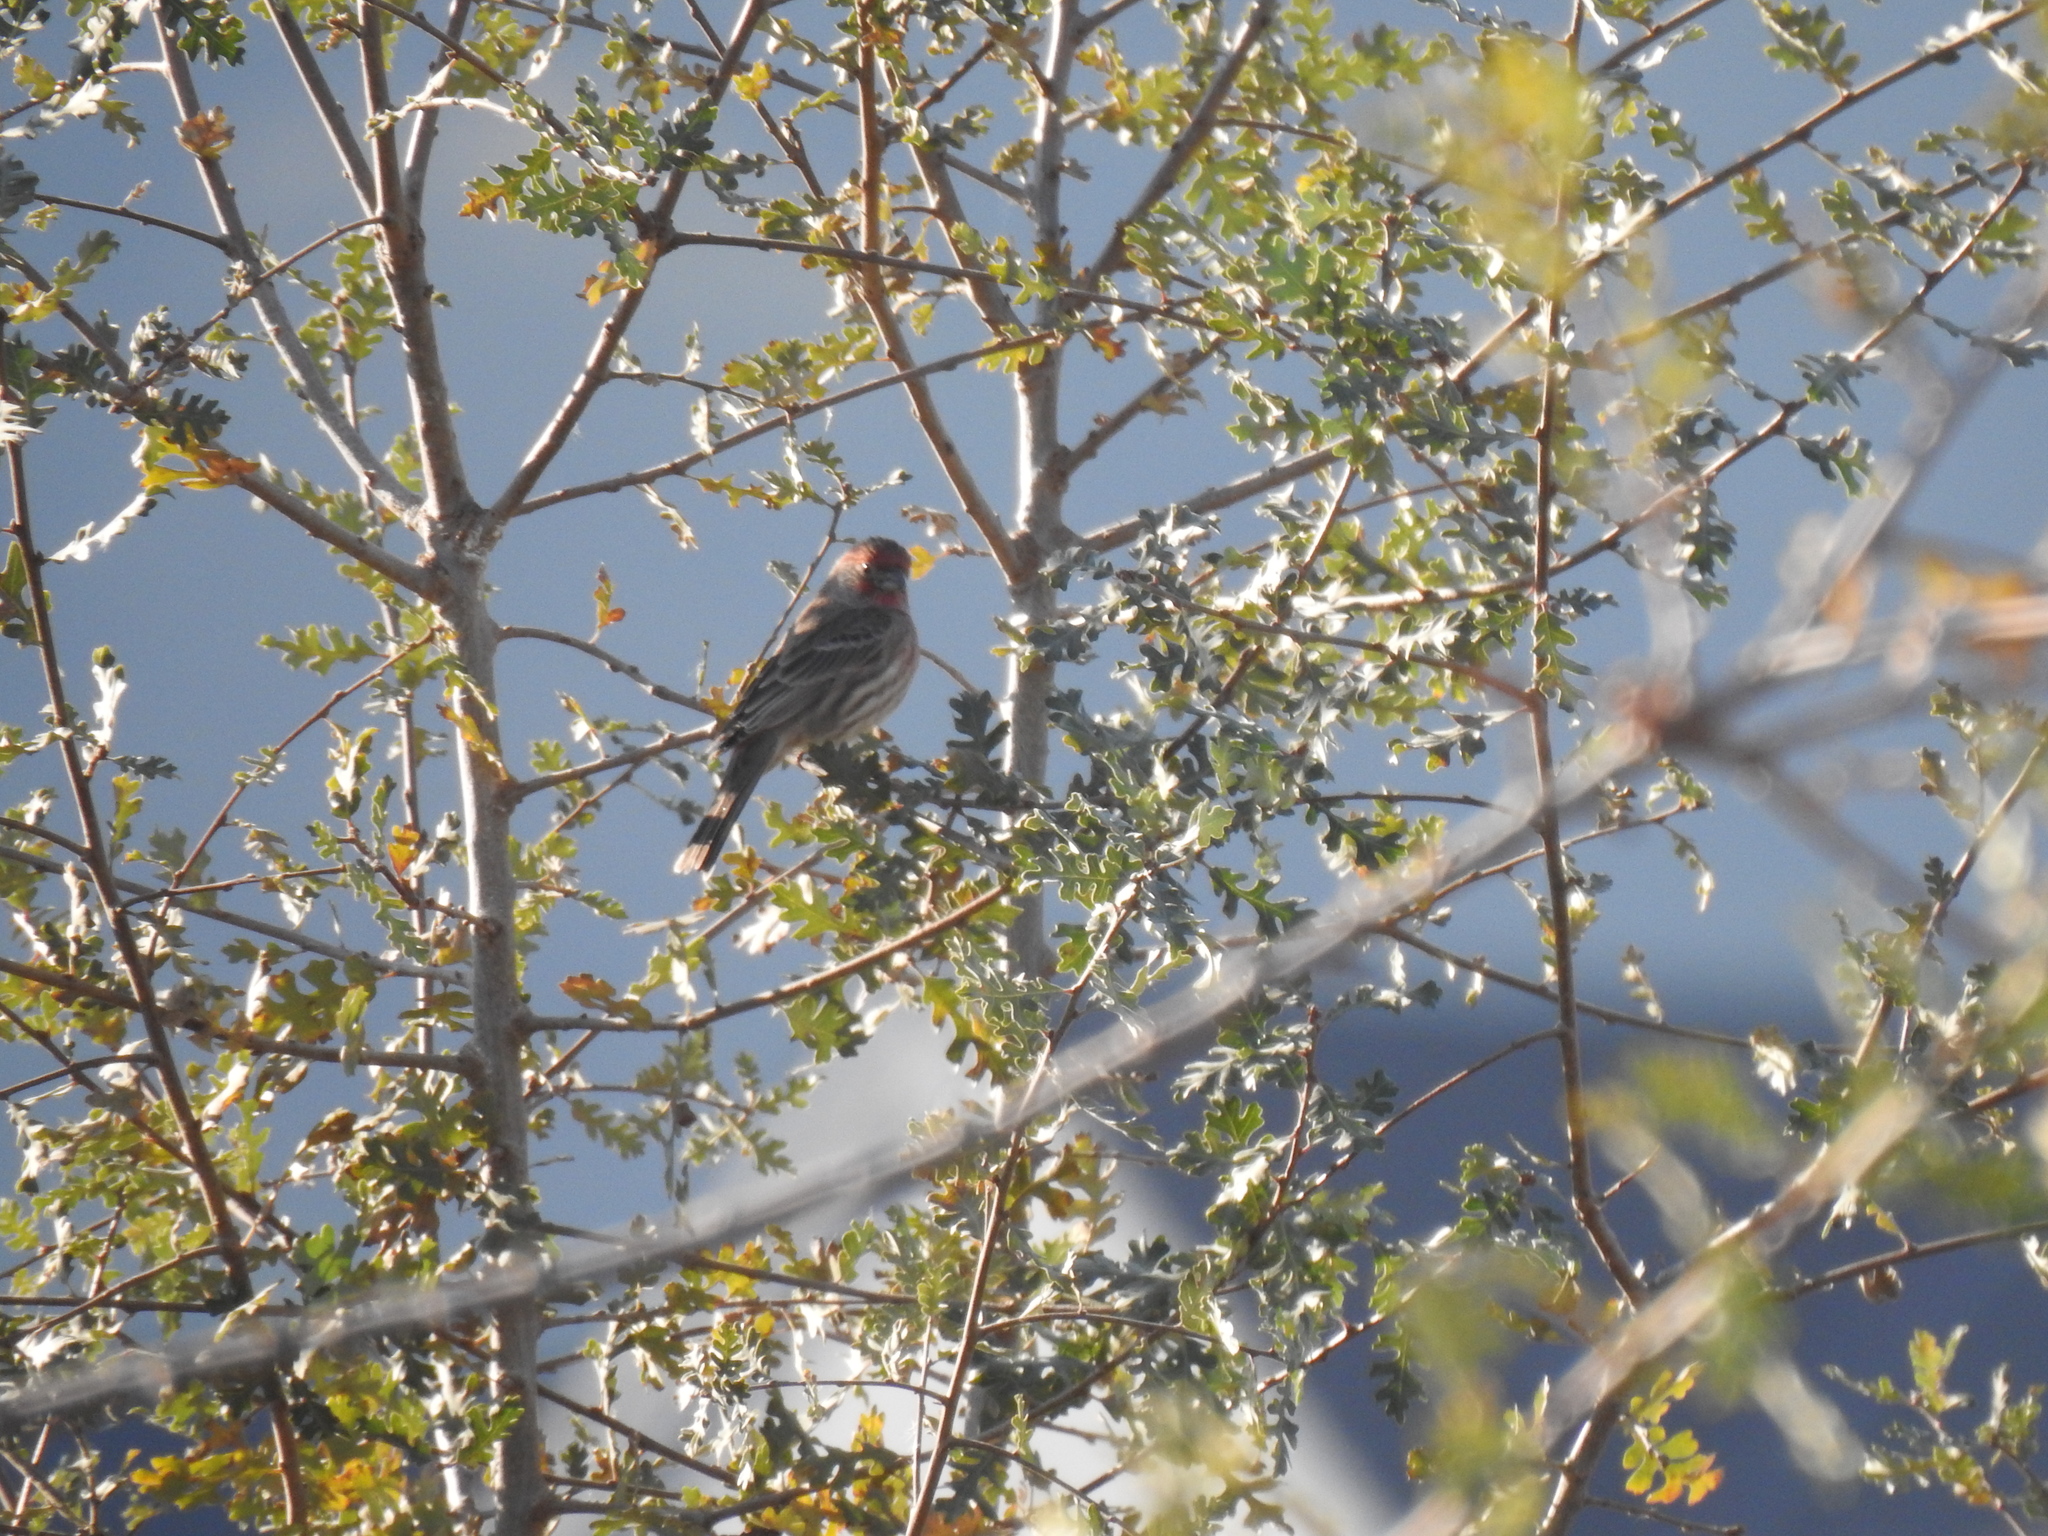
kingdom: Animalia
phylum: Chordata
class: Aves
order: Passeriformes
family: Fringillidae
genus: Haemorhous
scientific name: Haemorhous mexicanus
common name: House finch
